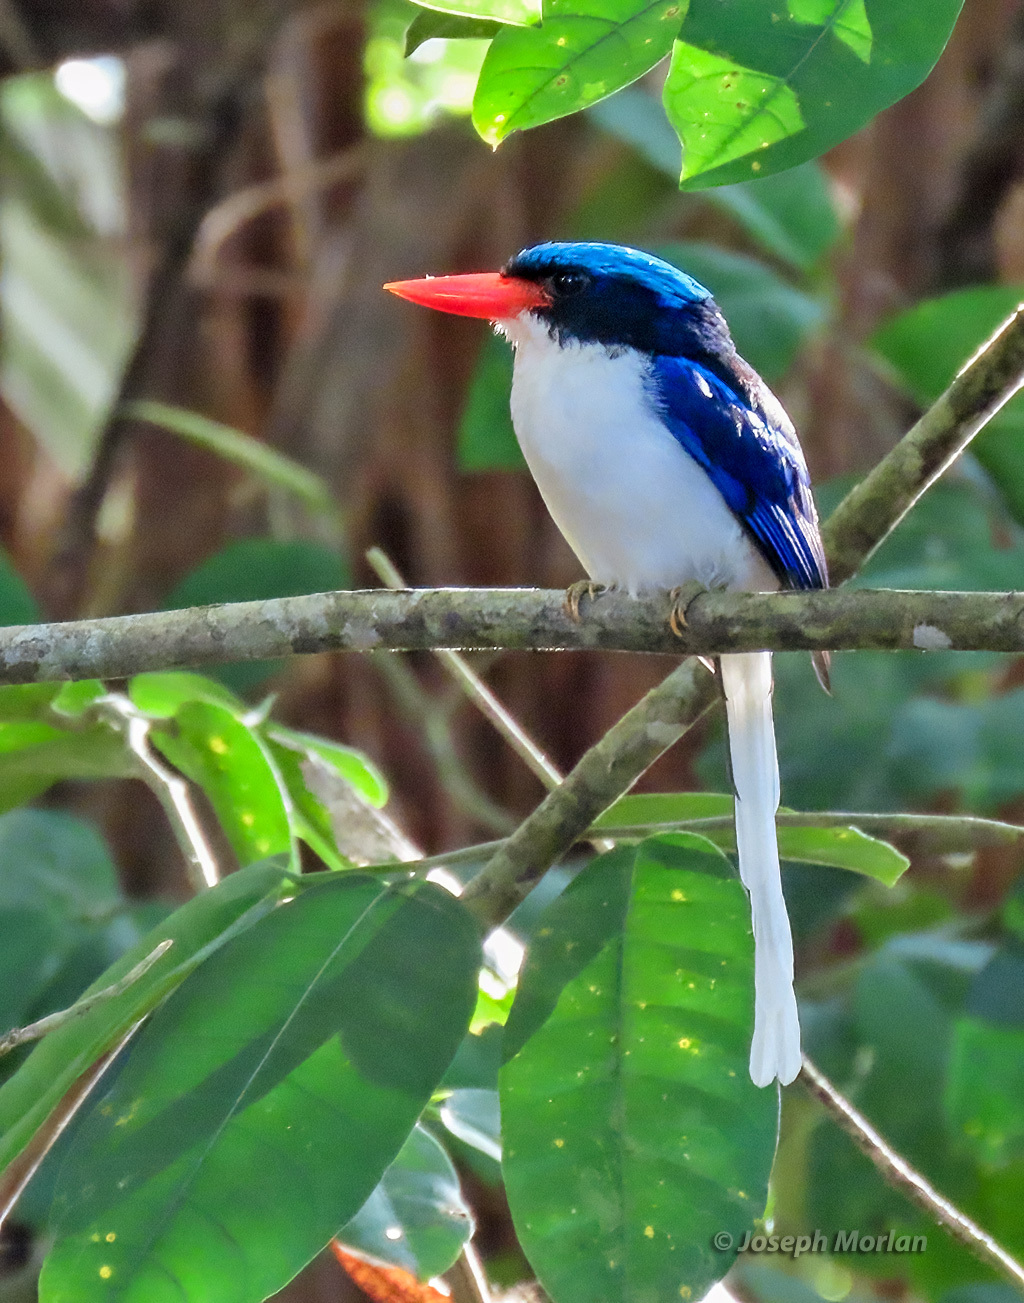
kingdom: Animalia
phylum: Chordata
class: Aves
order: Coraciiformes
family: Alcedinidae
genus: Tanysiptera
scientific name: Tanysiptera galatea
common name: Common paradise-kingfisher
